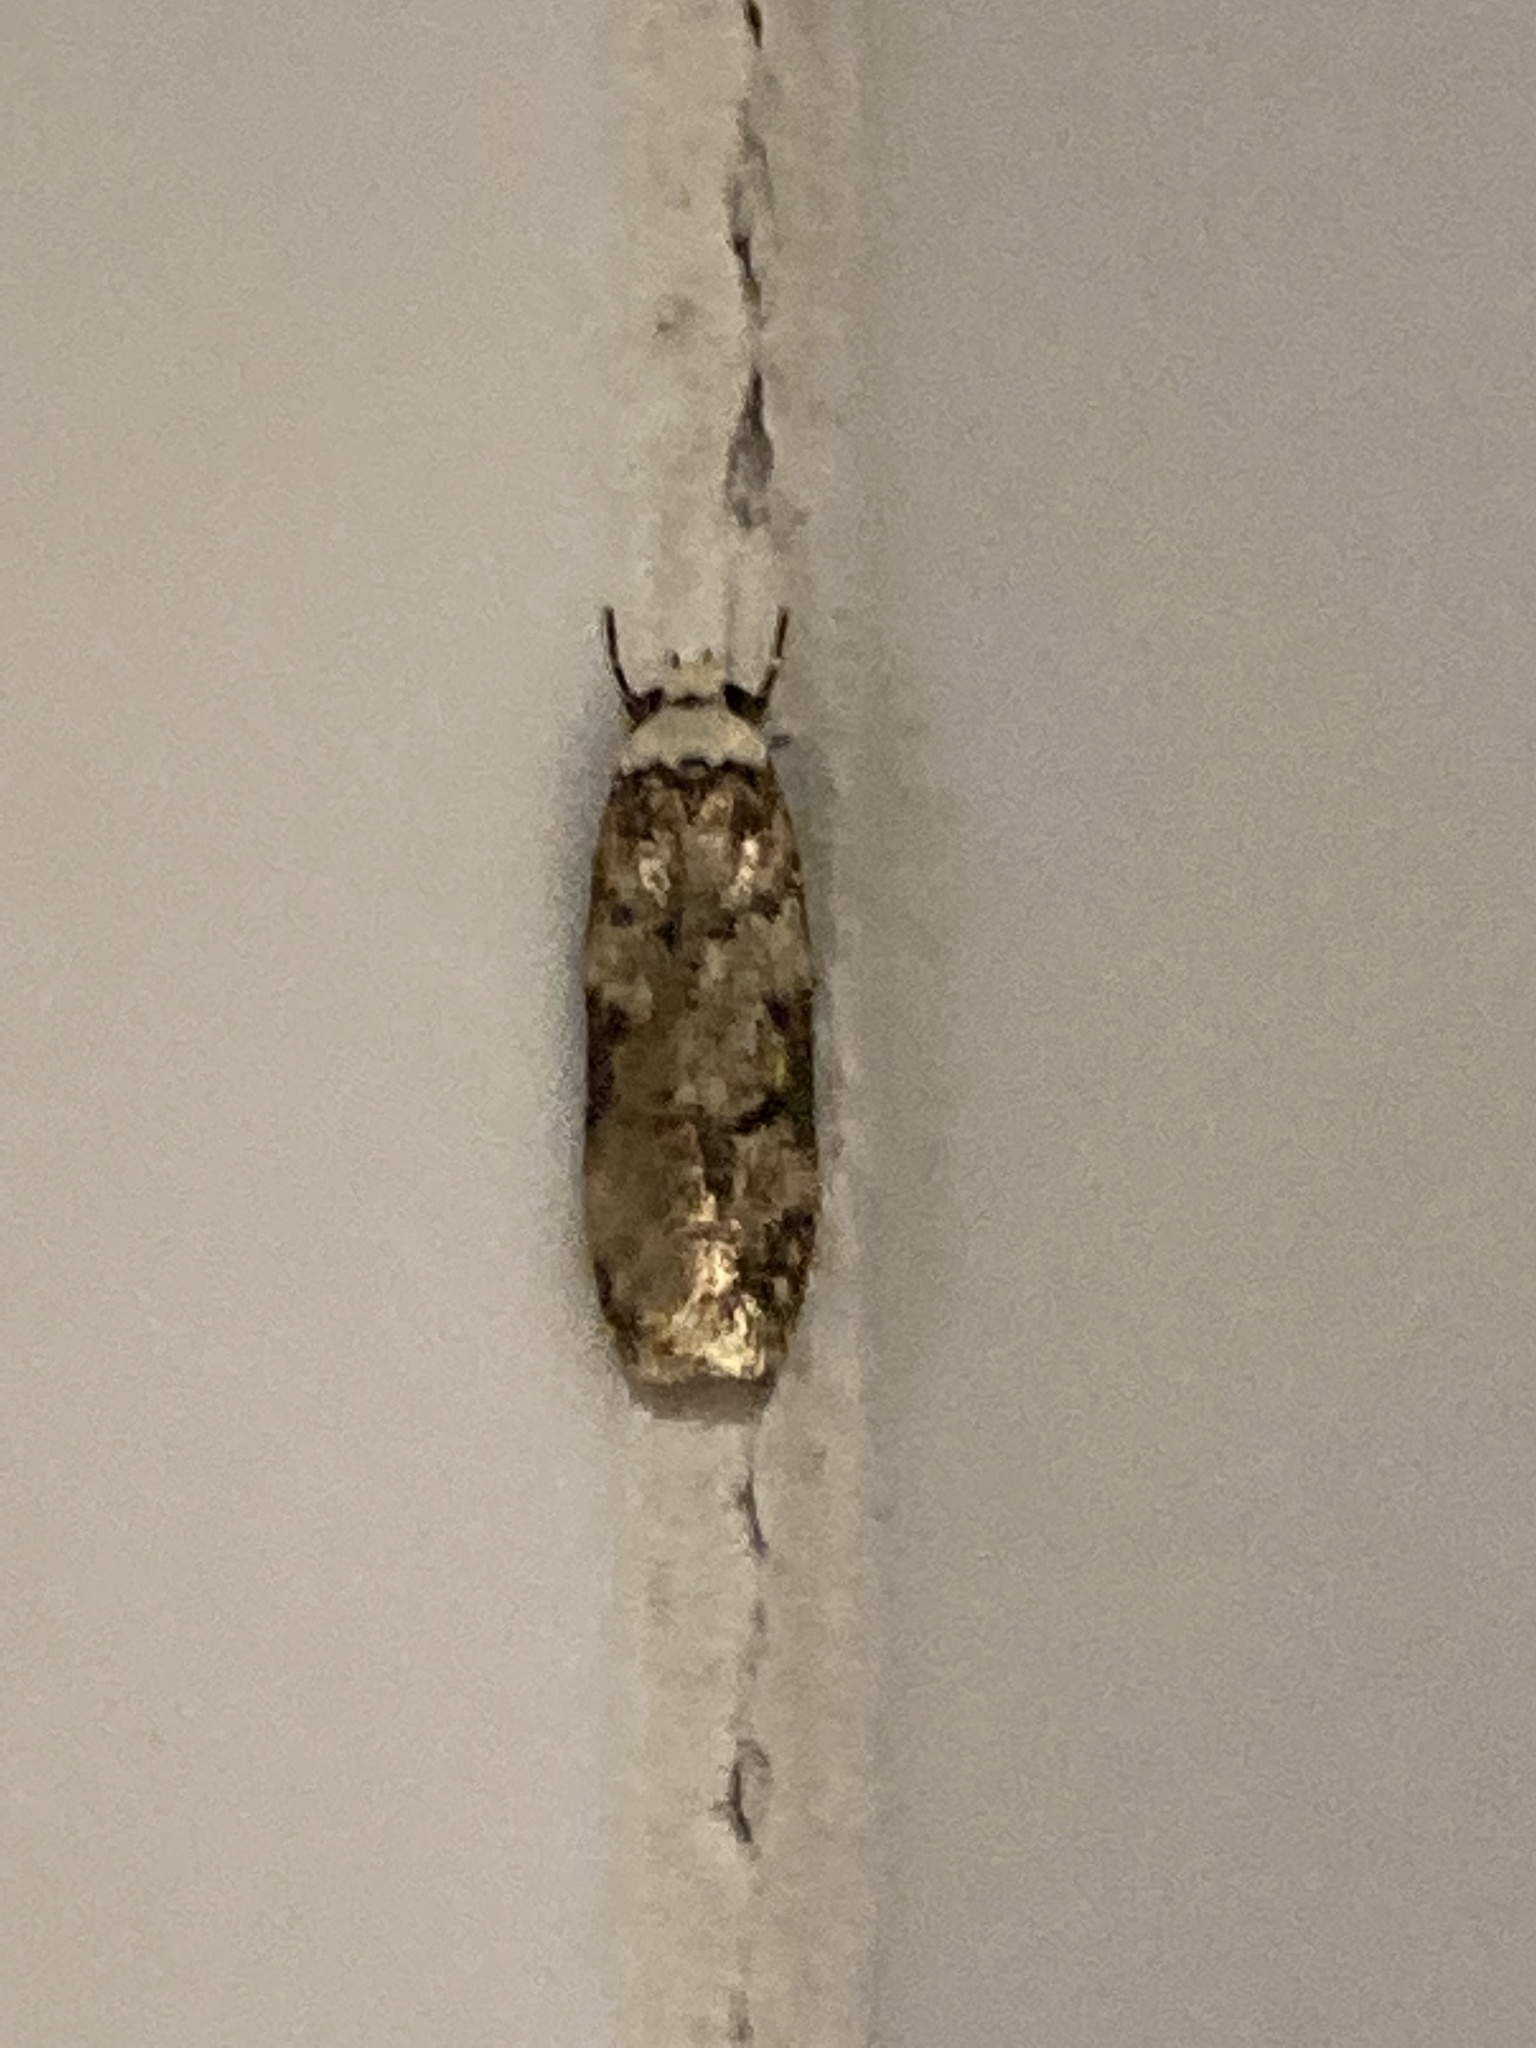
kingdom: Animalia
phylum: Arthropoda
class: Insecta
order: Lepidoptera
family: Oecophoridae
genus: Endrosis
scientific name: Endrosis sarcitrella
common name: White-shouldered house moth
